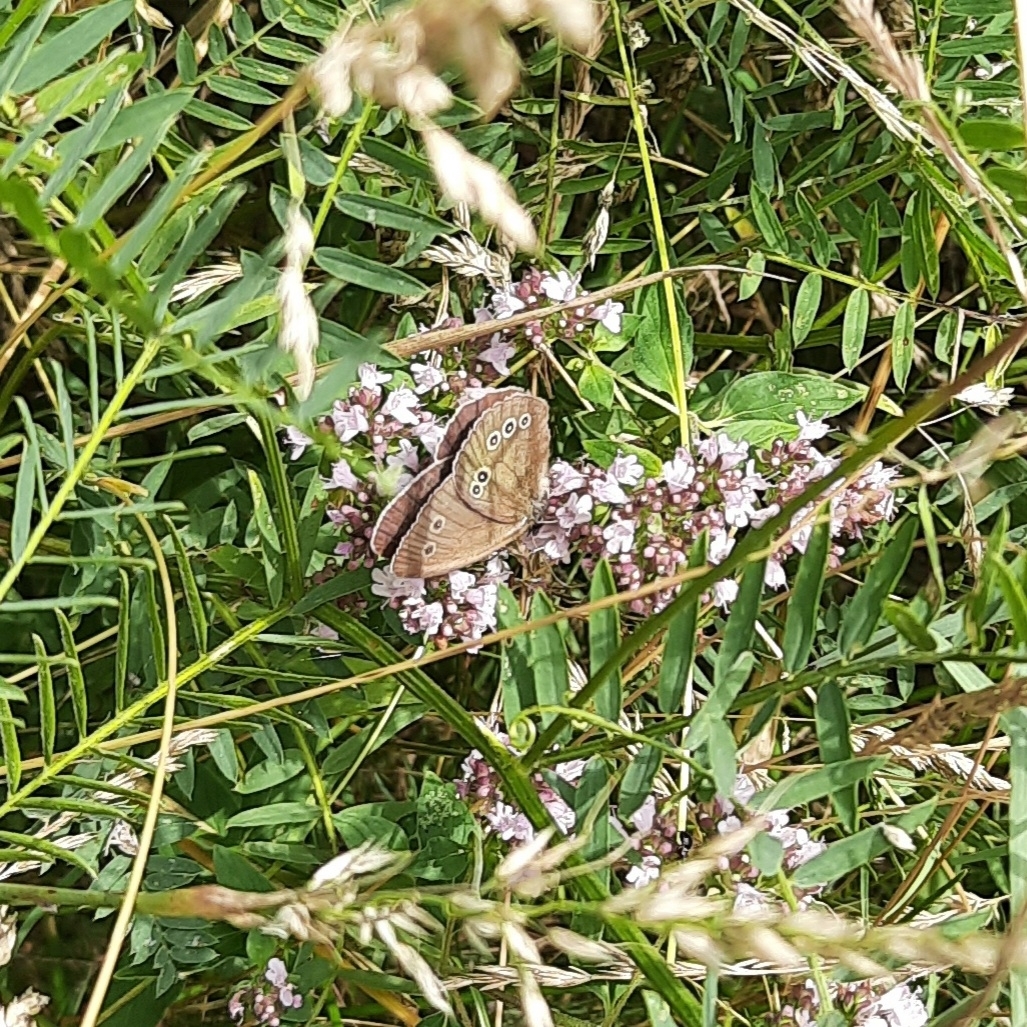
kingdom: Animalia
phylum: Arthropoda
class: Insecta
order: Lepidoptera
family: Nymphalidae
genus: Aphantopus
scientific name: Aphantopus hyperantus
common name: Ringlet
